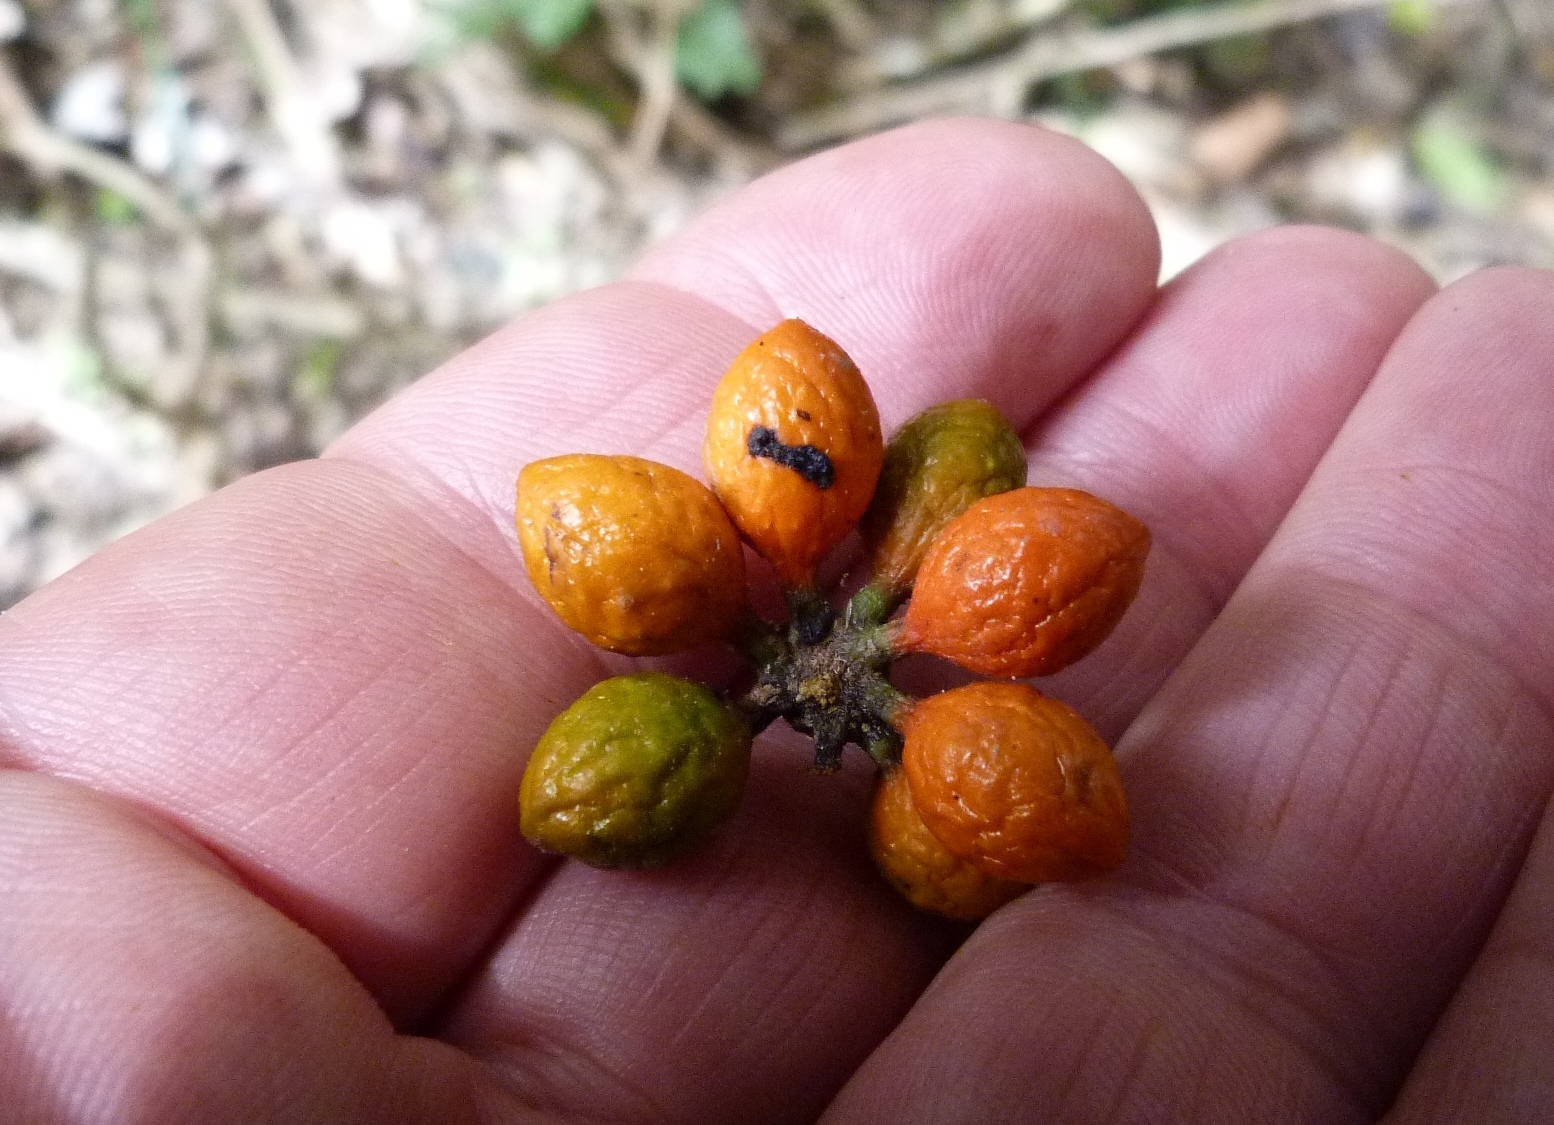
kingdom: Plantae
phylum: Tracheophyta
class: Magnoliopsida
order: Laurales
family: Monimiaceae
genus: Hedycarya
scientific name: Hedycarya arborea
